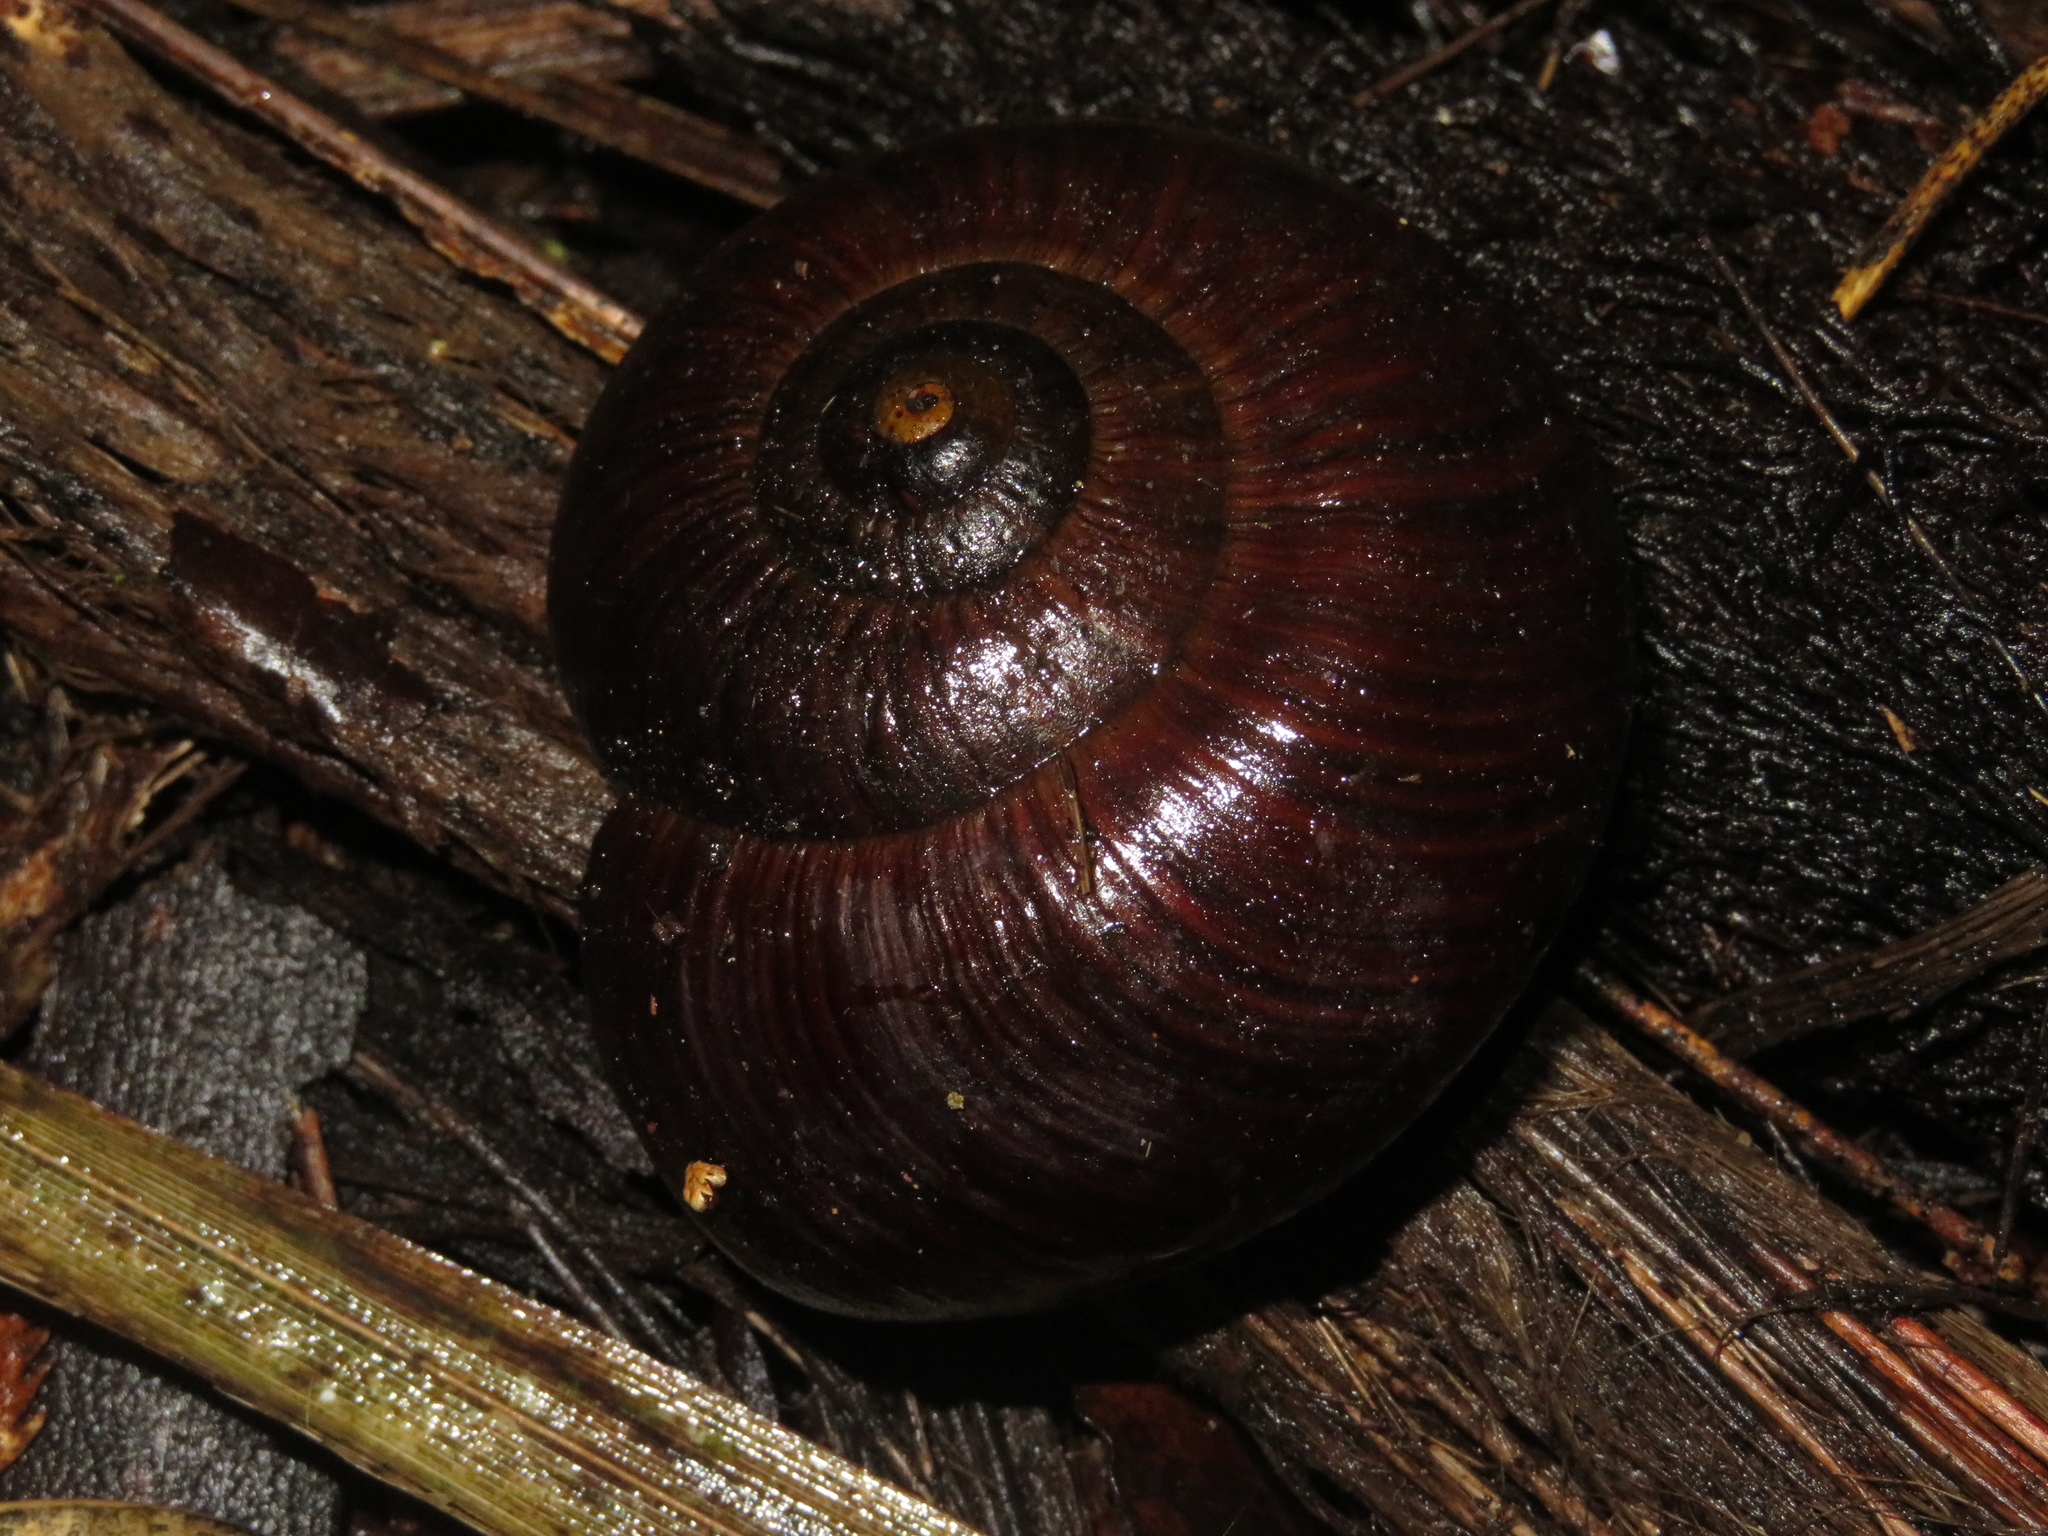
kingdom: Animalia
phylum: Mollusca
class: Gastropoda
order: Stylommatophora
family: Rhytididae
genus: Powelliphanta
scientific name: Powelliphanta annectens
